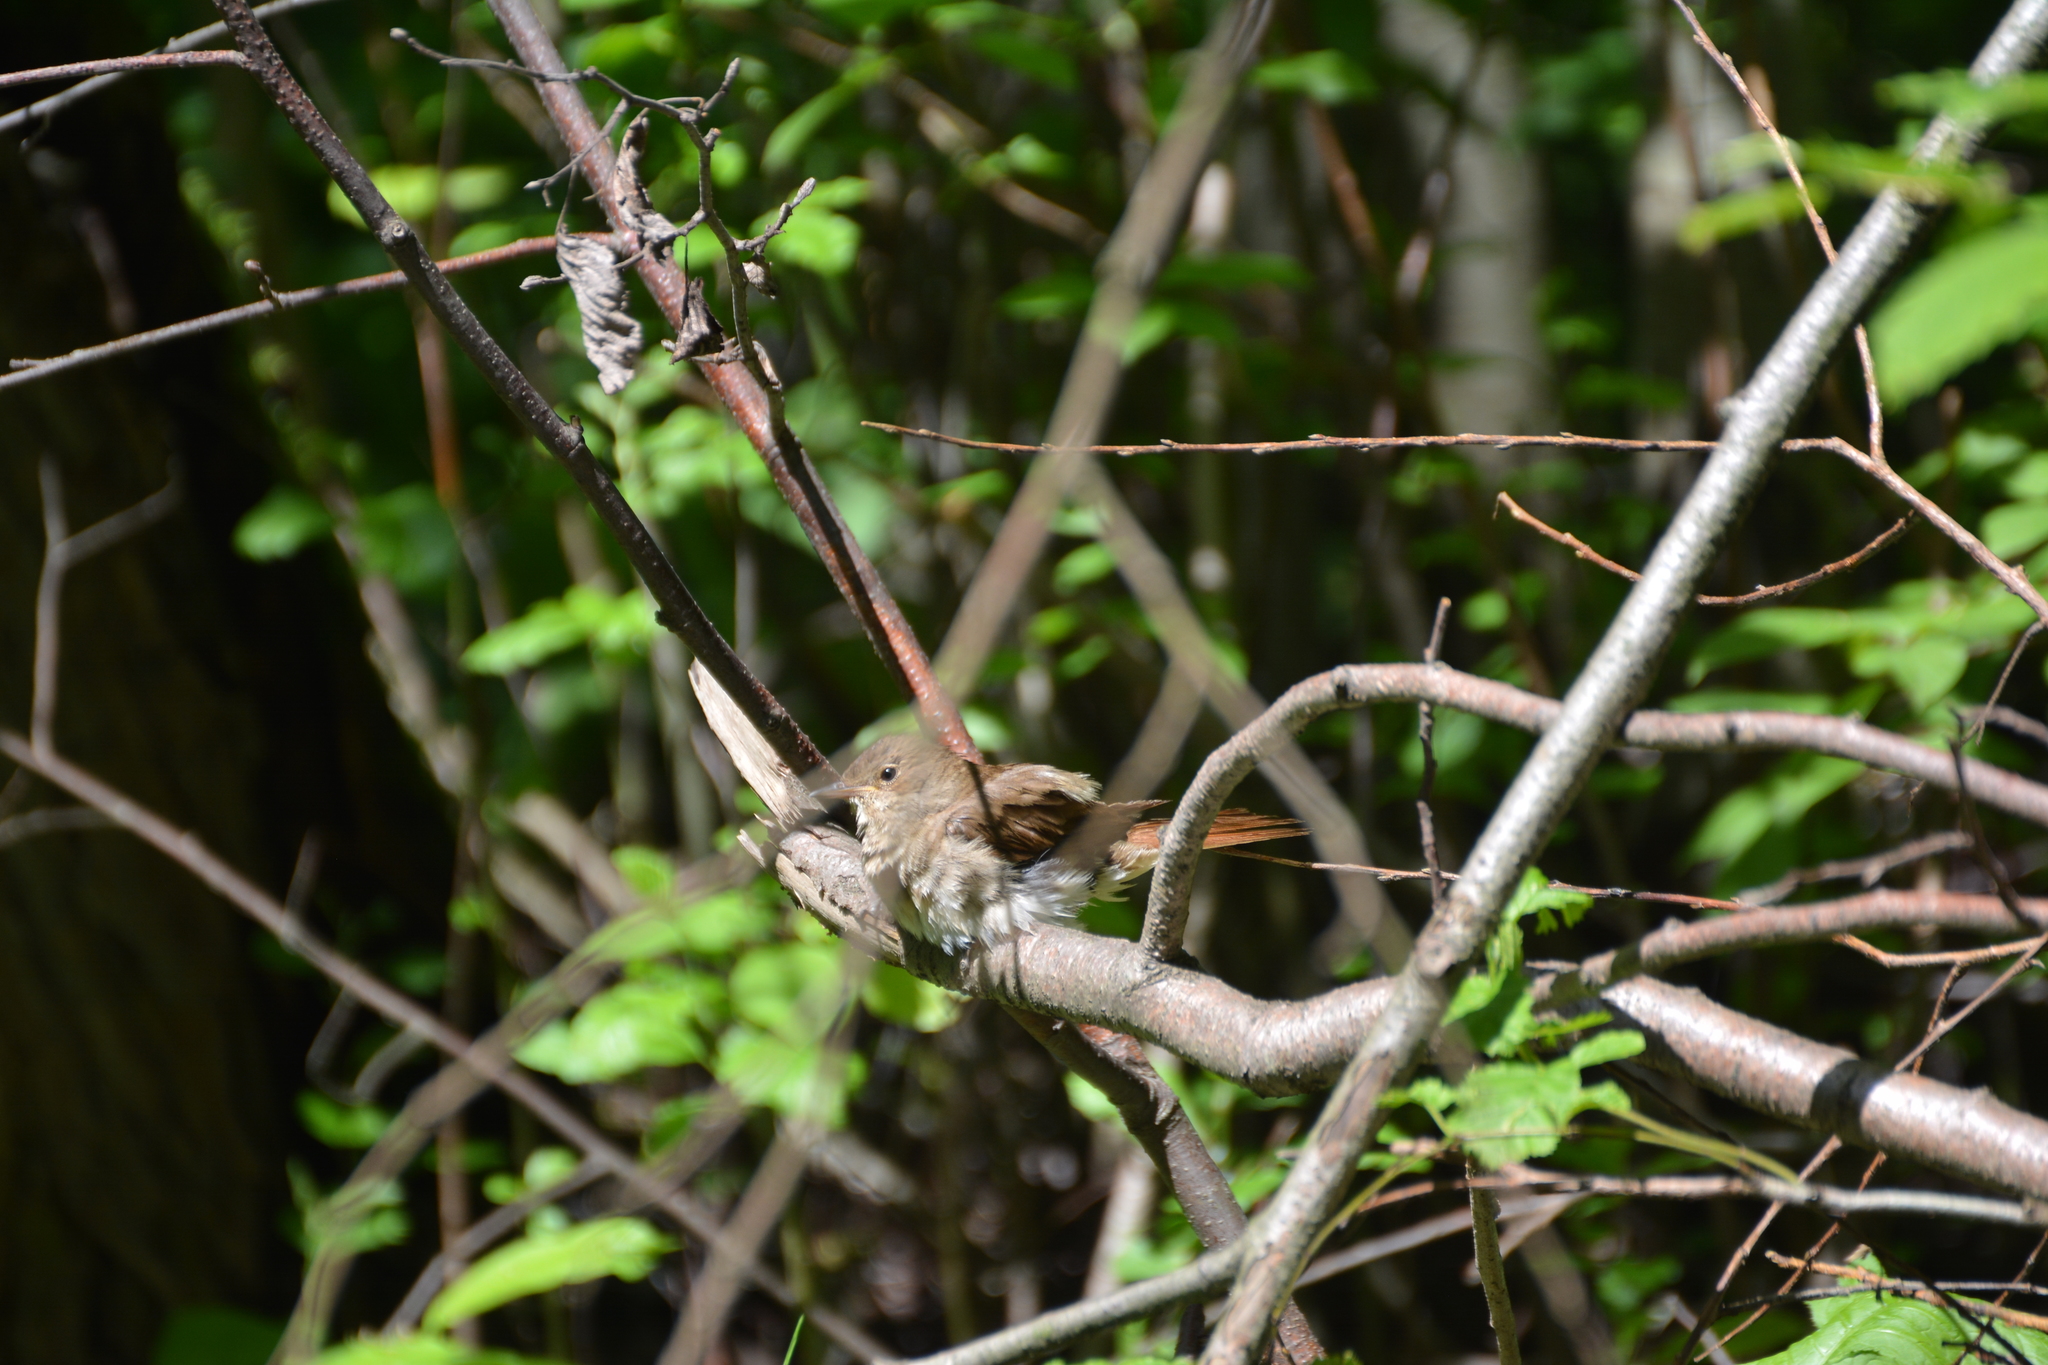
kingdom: Animalia
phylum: Chordata
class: Aves
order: Passeriformes
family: Muscicapidae
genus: Luscinia
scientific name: Luscinia luscinia
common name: Thrush nightingale
